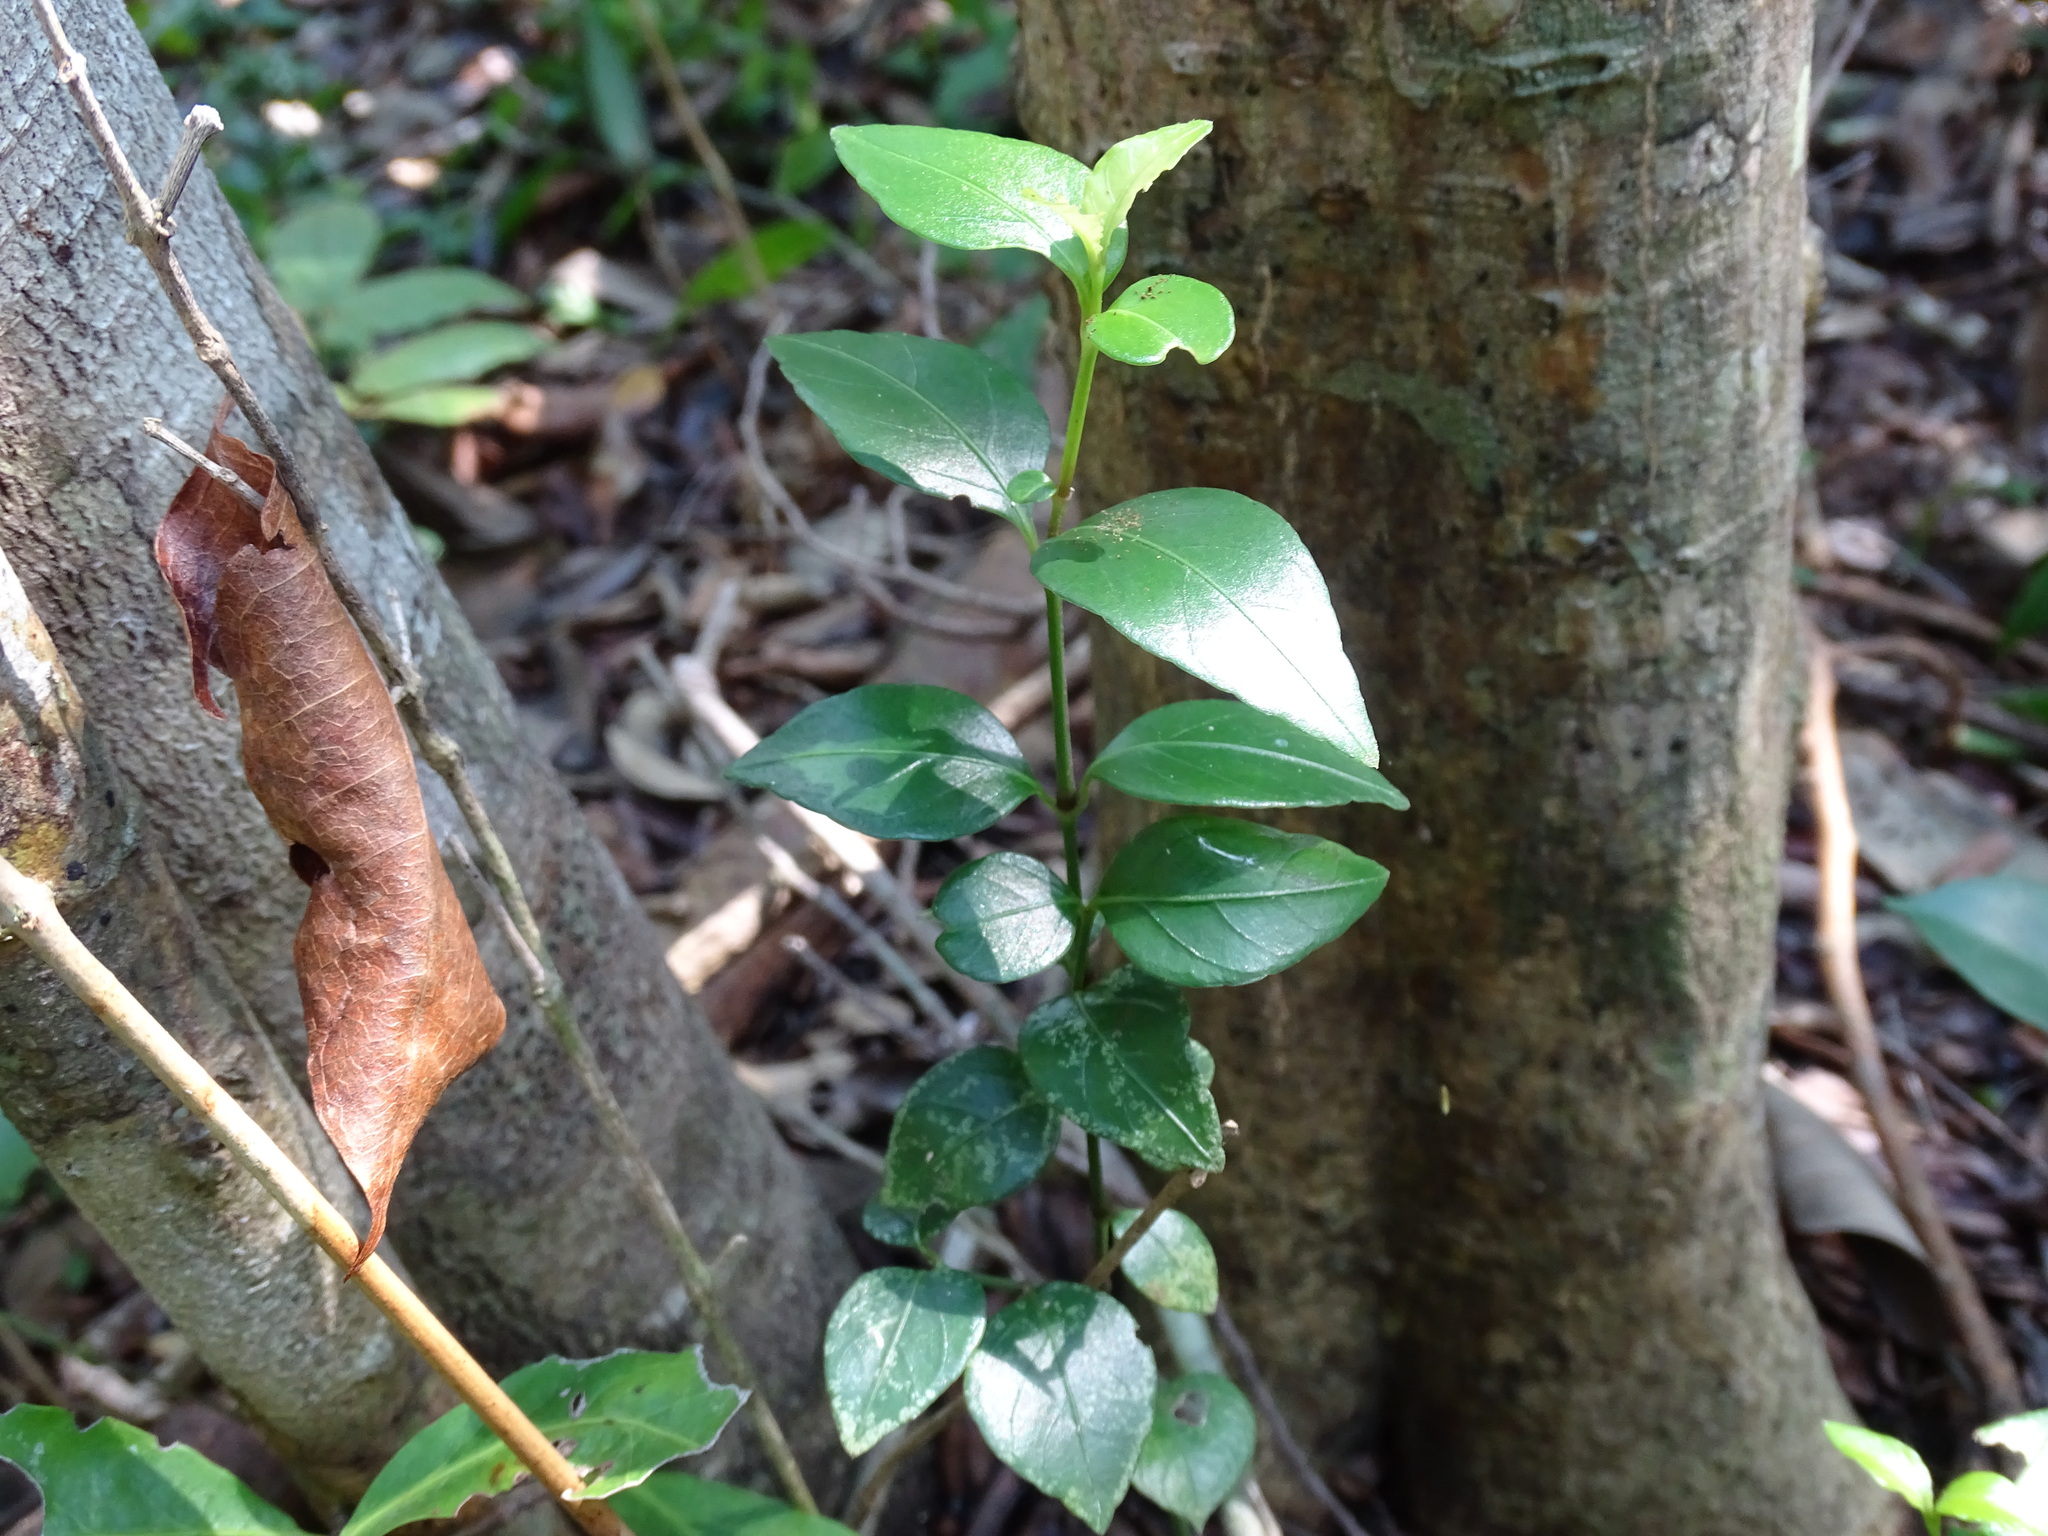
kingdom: Plantae
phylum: Tracheophyta
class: Magnoliopsida
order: Lamiales
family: Acanthaceae
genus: Justicia
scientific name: Justicia cobensis
